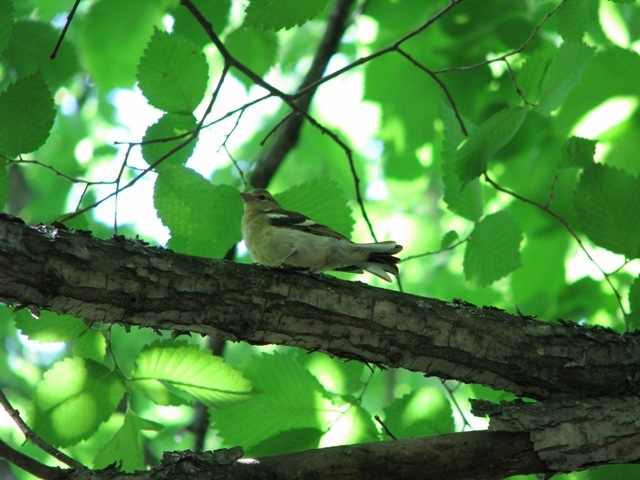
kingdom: Animalia
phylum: Chordata
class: Aves
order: Passeriformes
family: Fringillidae
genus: Fringilla
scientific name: Fringilla coelebs
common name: Common chaffinch
